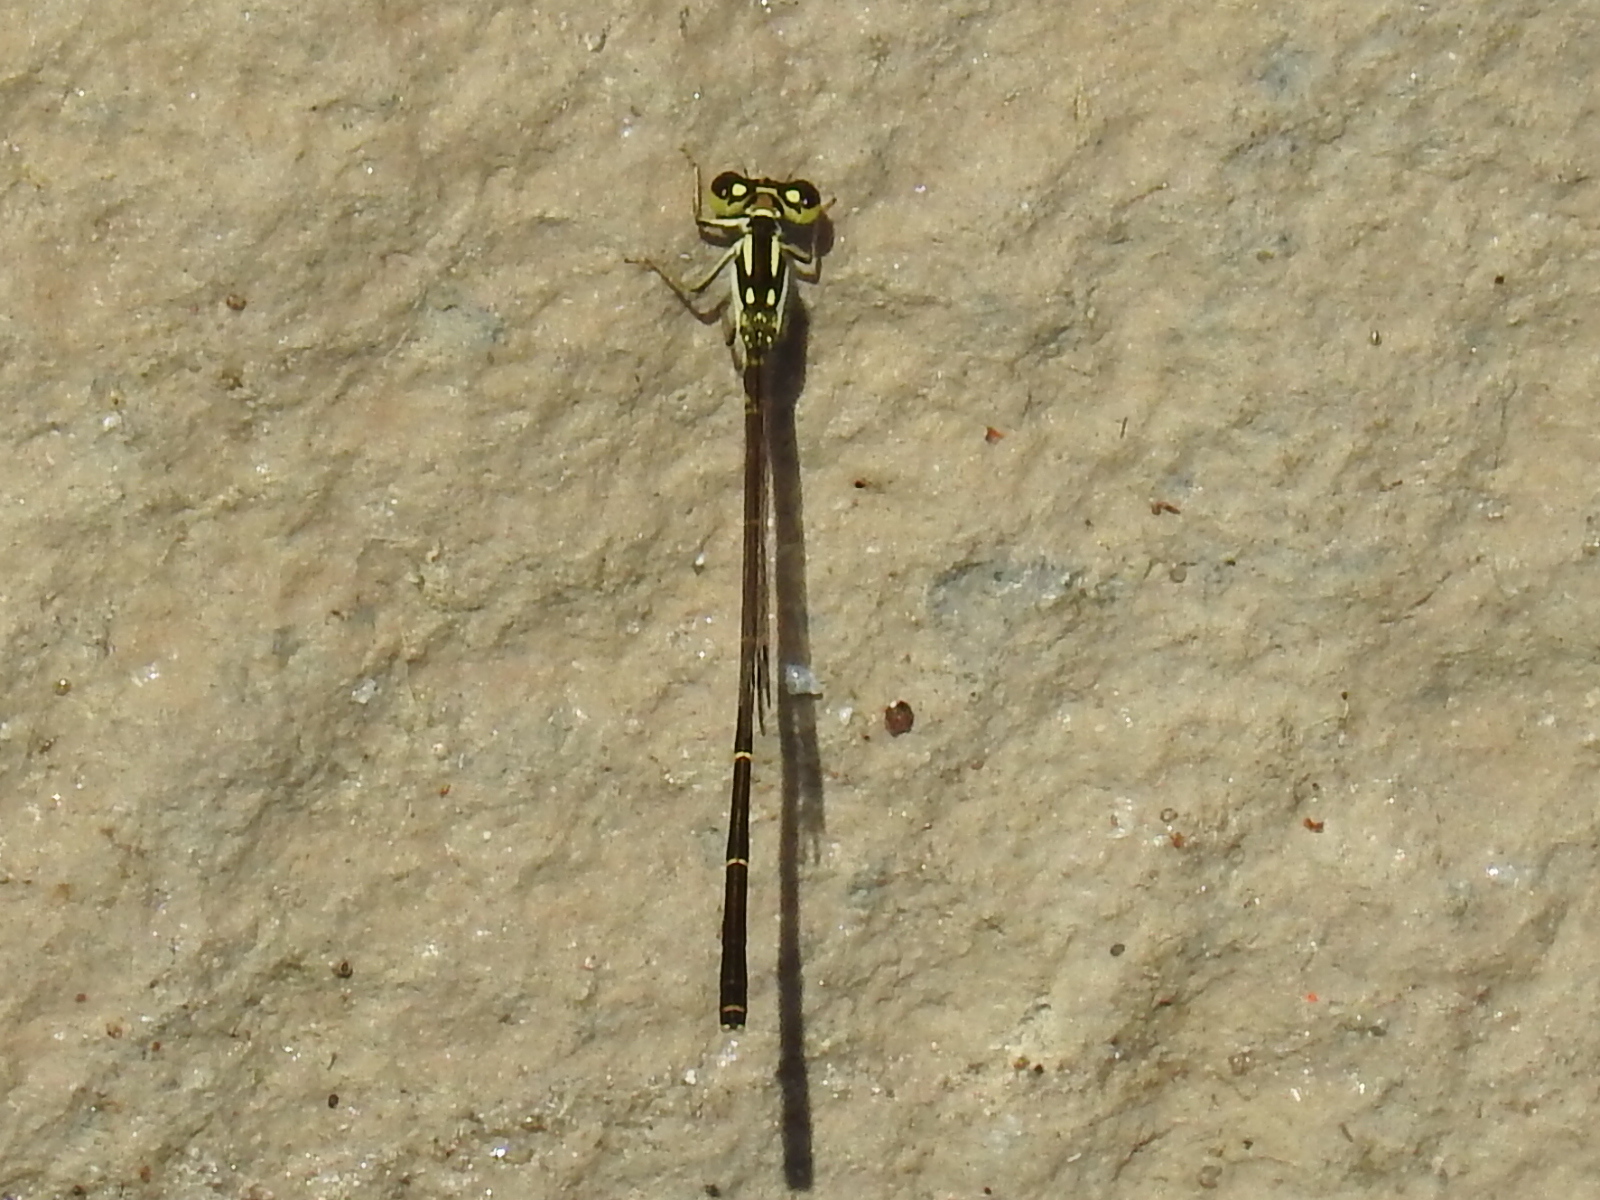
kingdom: Animalia
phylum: Arthropoda
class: Insecta
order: Odonata
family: Coenagrionidae
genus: Ischnura
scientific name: Ischnura posita
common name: Fragile forktail
